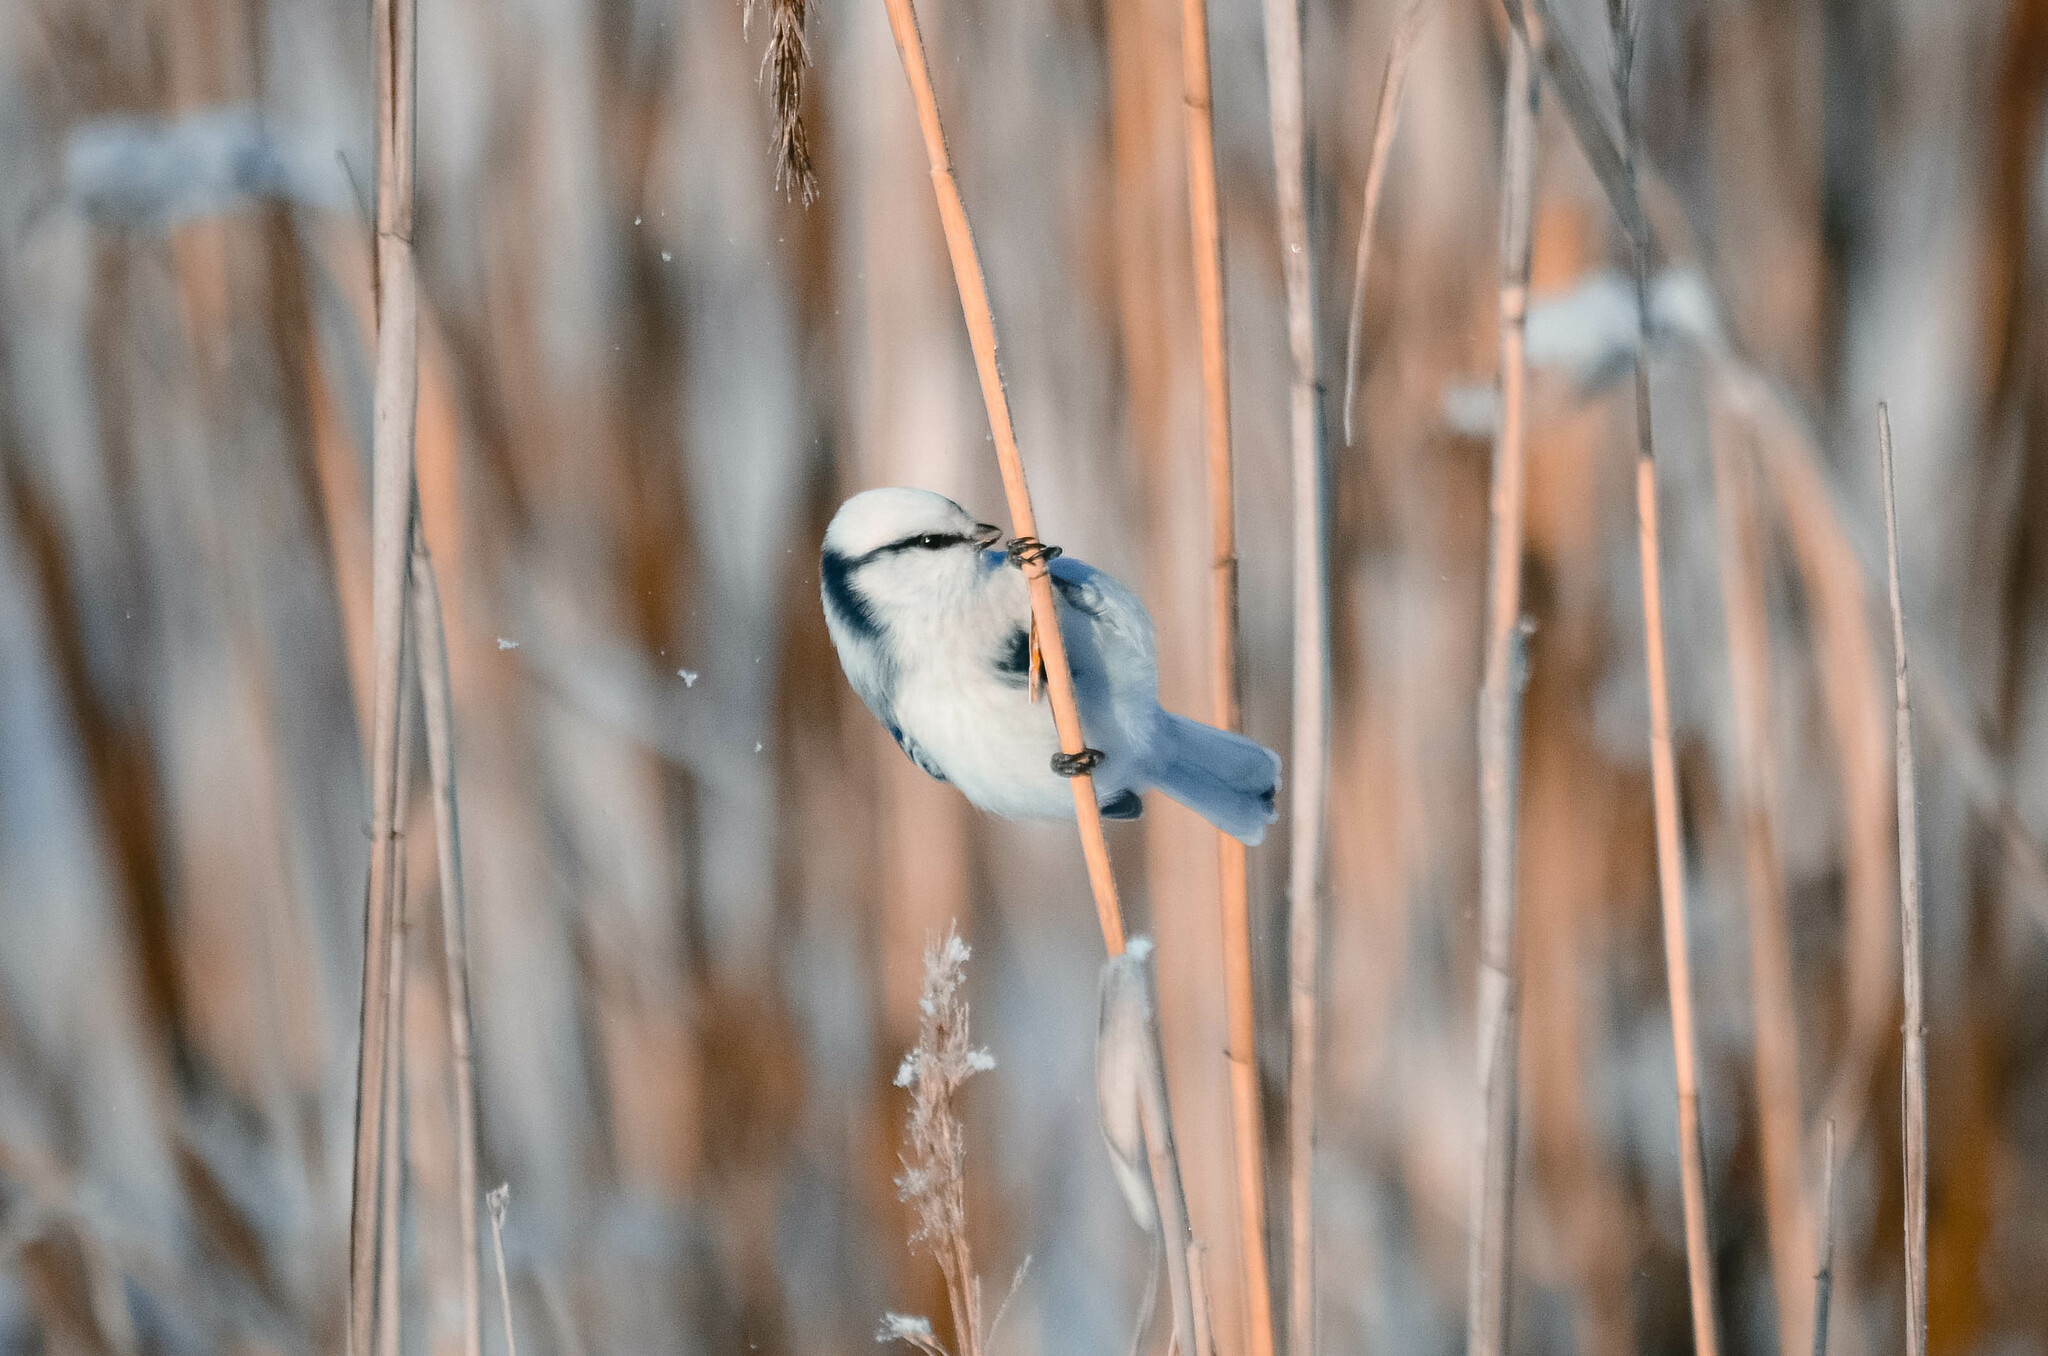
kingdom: Animalia
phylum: Chordata
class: Aves
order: Passeriformes
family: Paridae
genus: Cyanistes
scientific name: Cyanistes cyanus
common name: Azure tit
